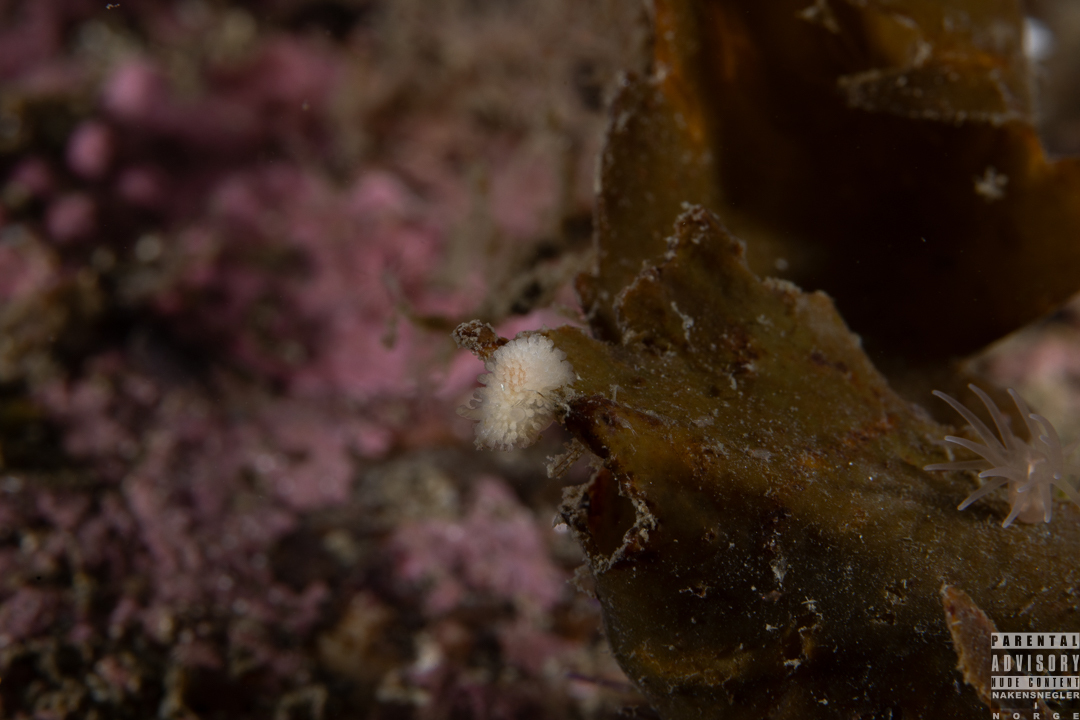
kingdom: Animalia
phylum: Mollusca
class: Gastropoda
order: Nudibranchia
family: Onchidorididae
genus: Onchidoris
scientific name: Onchidoris muricata
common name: Rough doris
